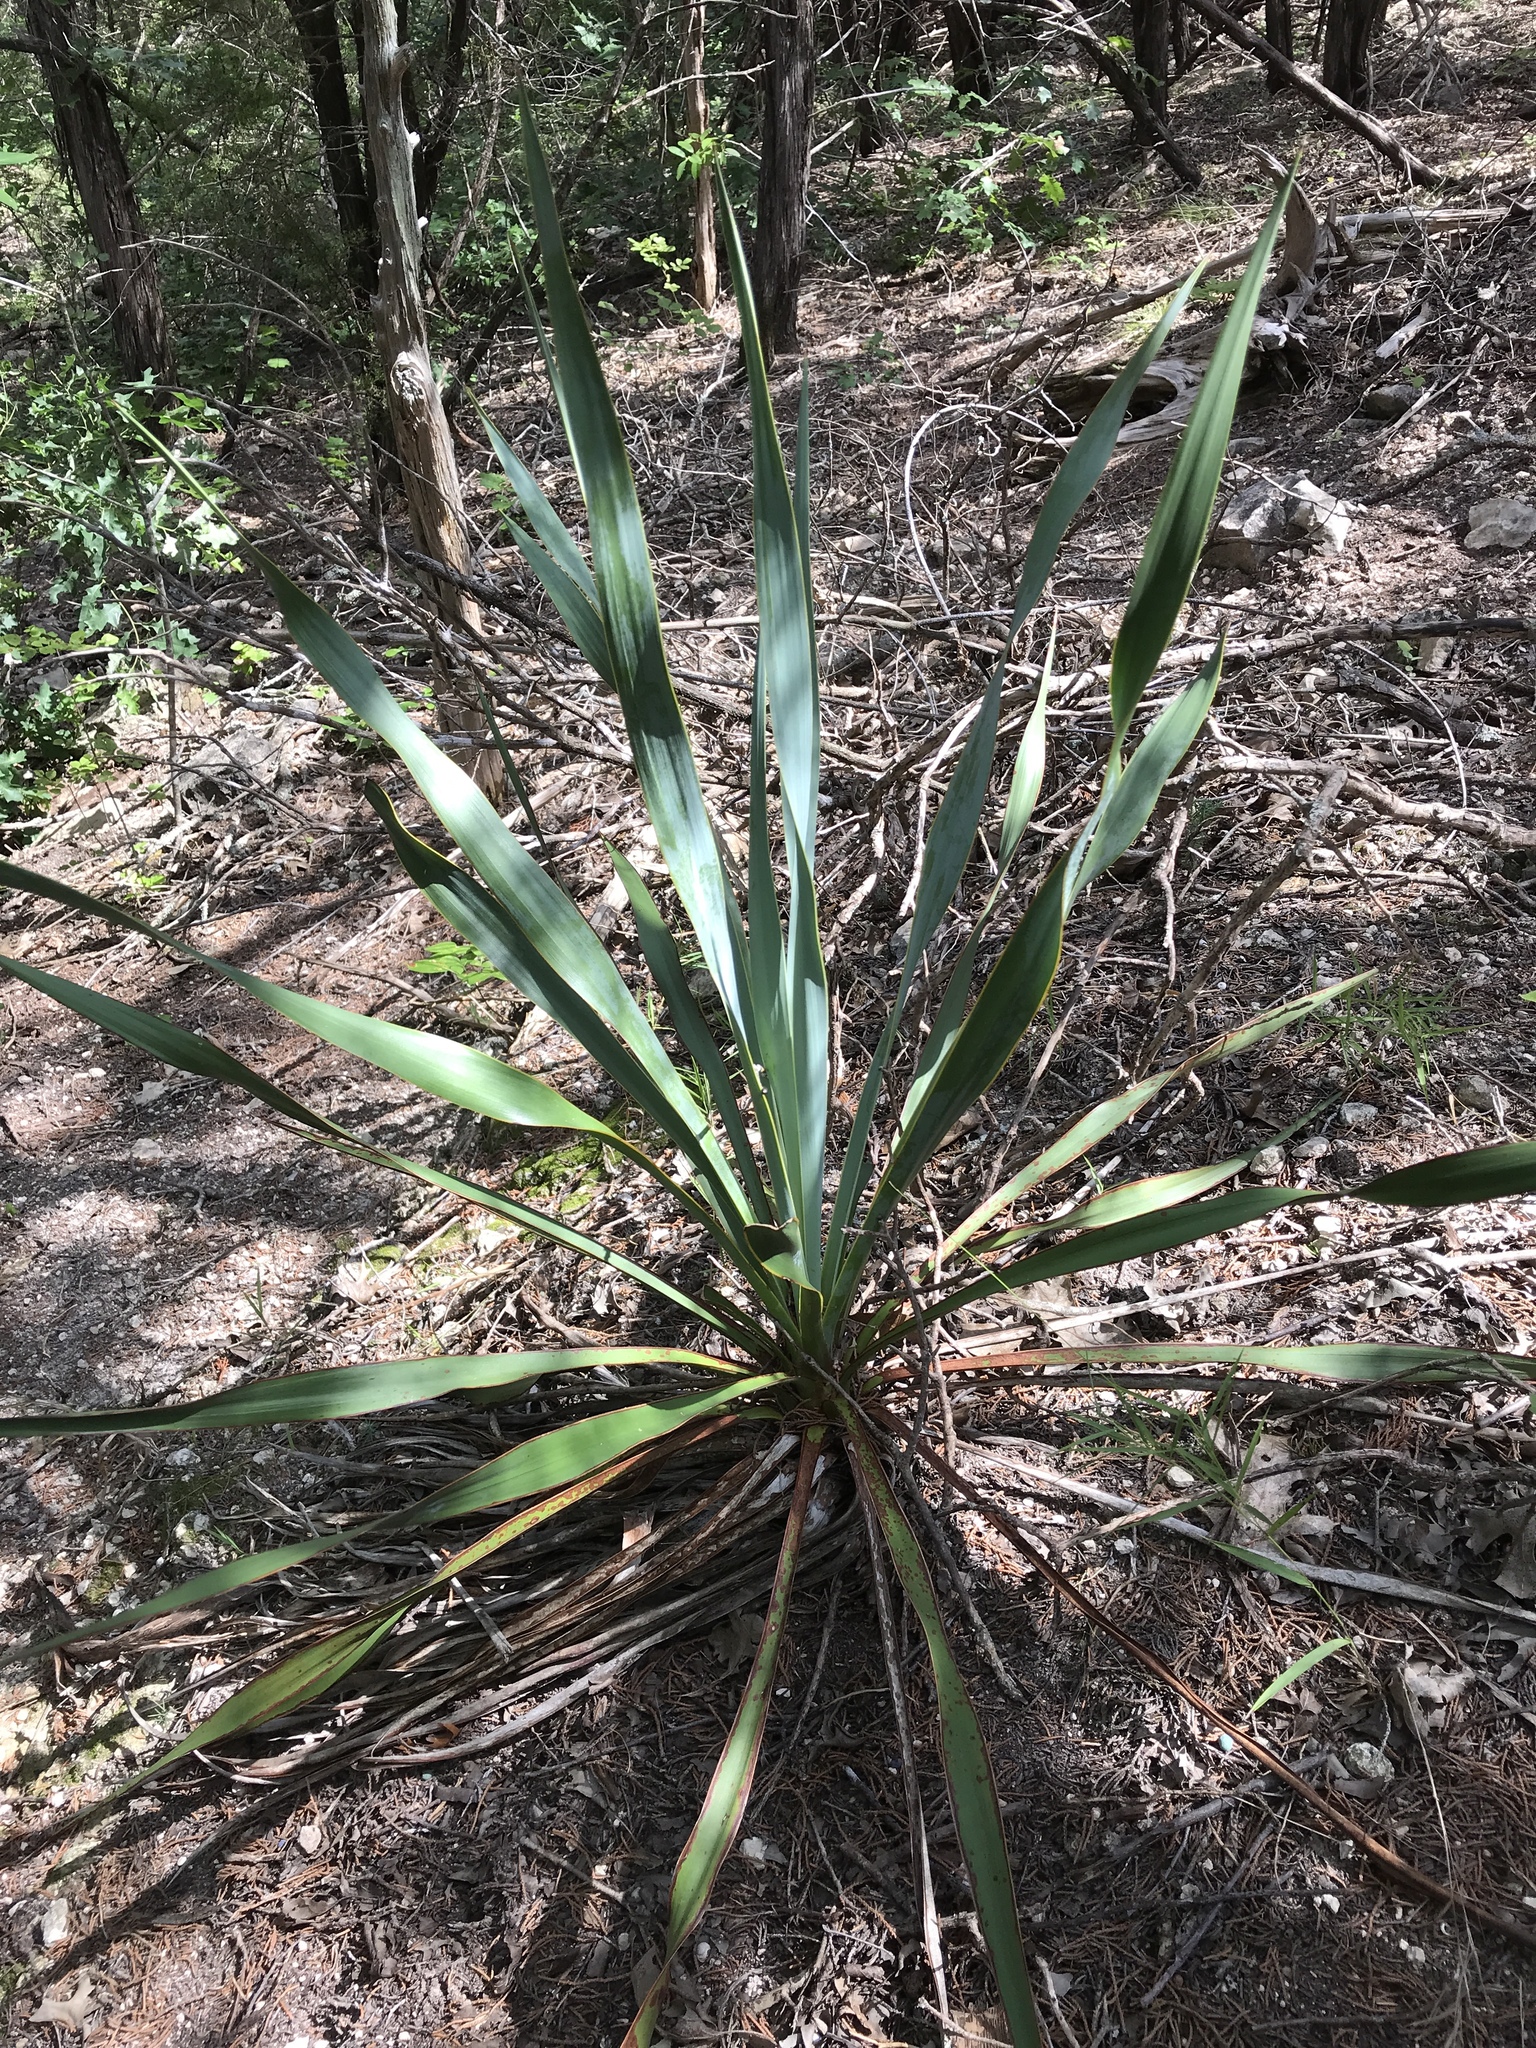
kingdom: Plantae
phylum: Tracheophyta
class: Liliopsida
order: Asparagales
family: Asparagaceae
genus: Yucca
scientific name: Yucca rupicola
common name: Twisted-leaf spanish-dagger
